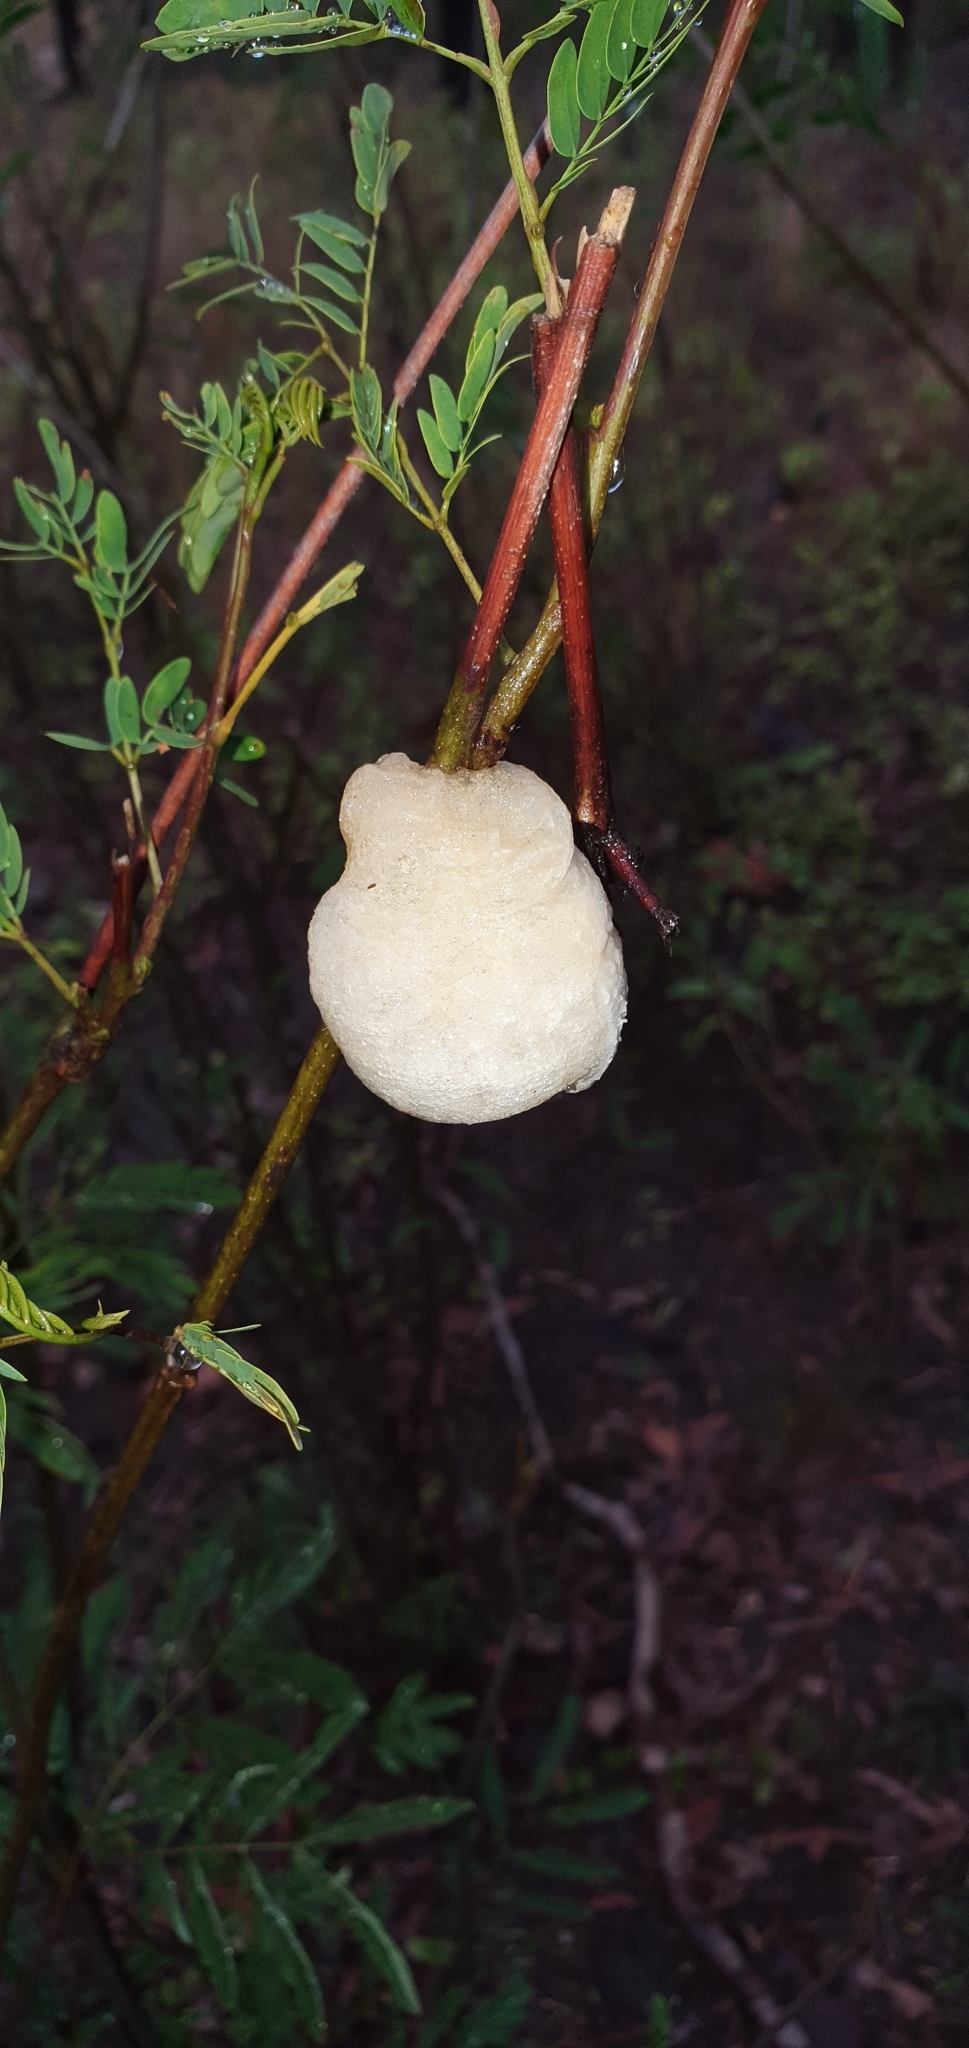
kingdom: Animalia
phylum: Arthropoda
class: Insecta
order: Mantodea
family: Mantidae
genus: Tenodera
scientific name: Tenodera australasiae
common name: Purple-winged mantis
